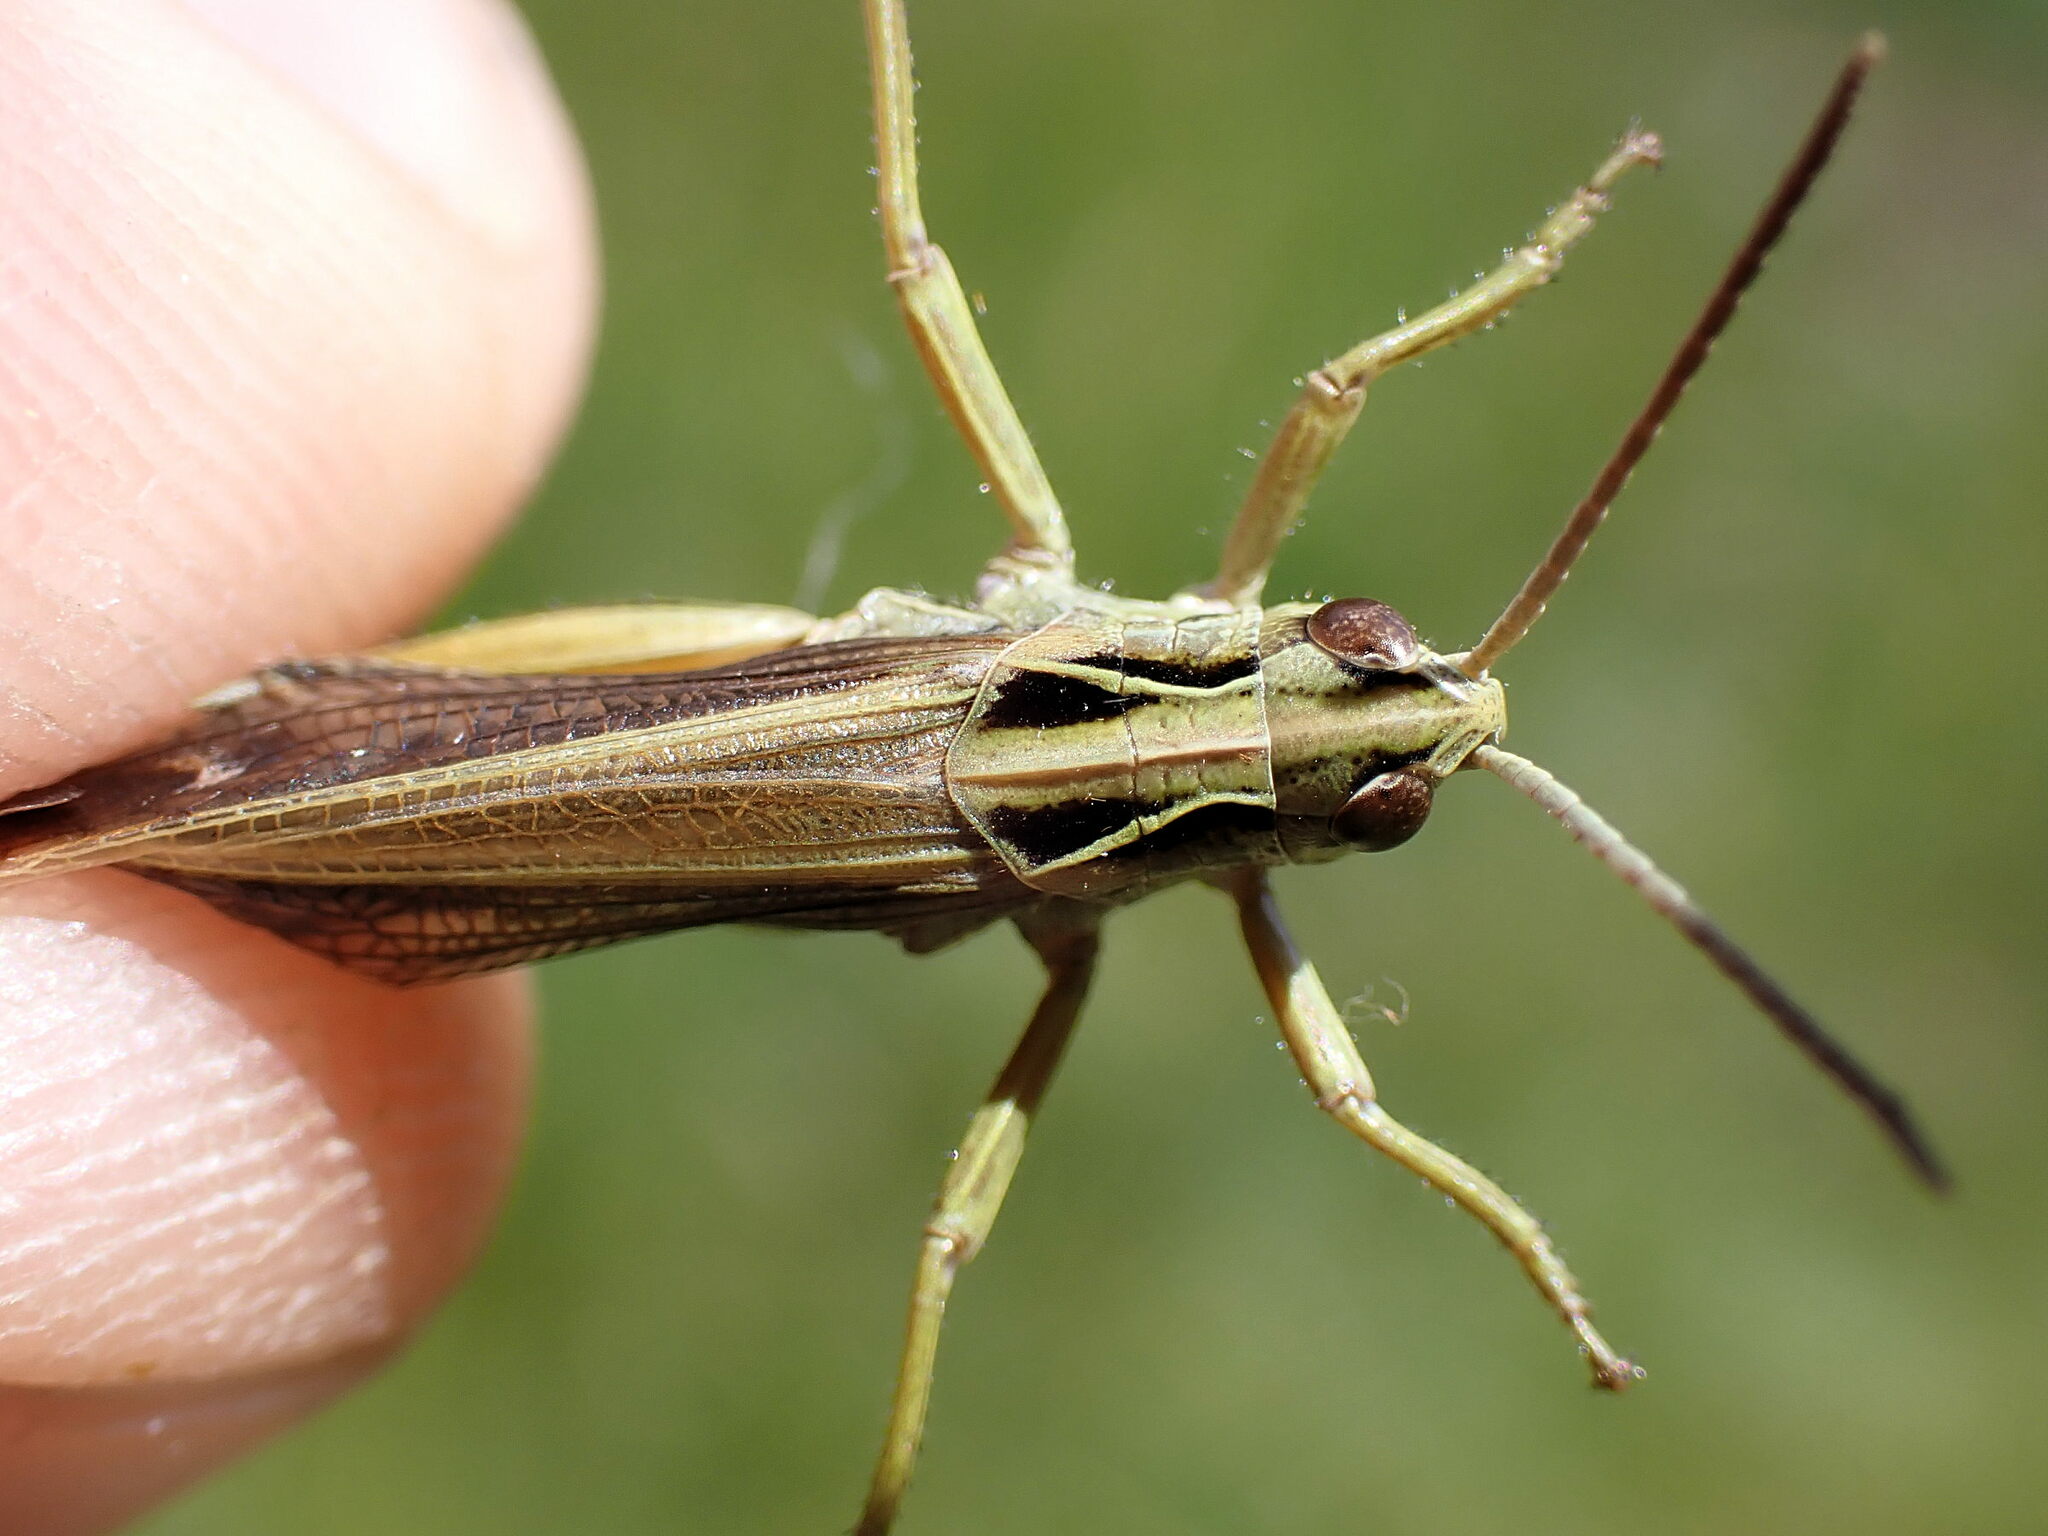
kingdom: Animalia
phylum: Arthropoda
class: Insecta
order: Orthoptera
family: Acrididae
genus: Omocestus
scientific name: Omocestus viridulus
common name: Common green grasshopper
